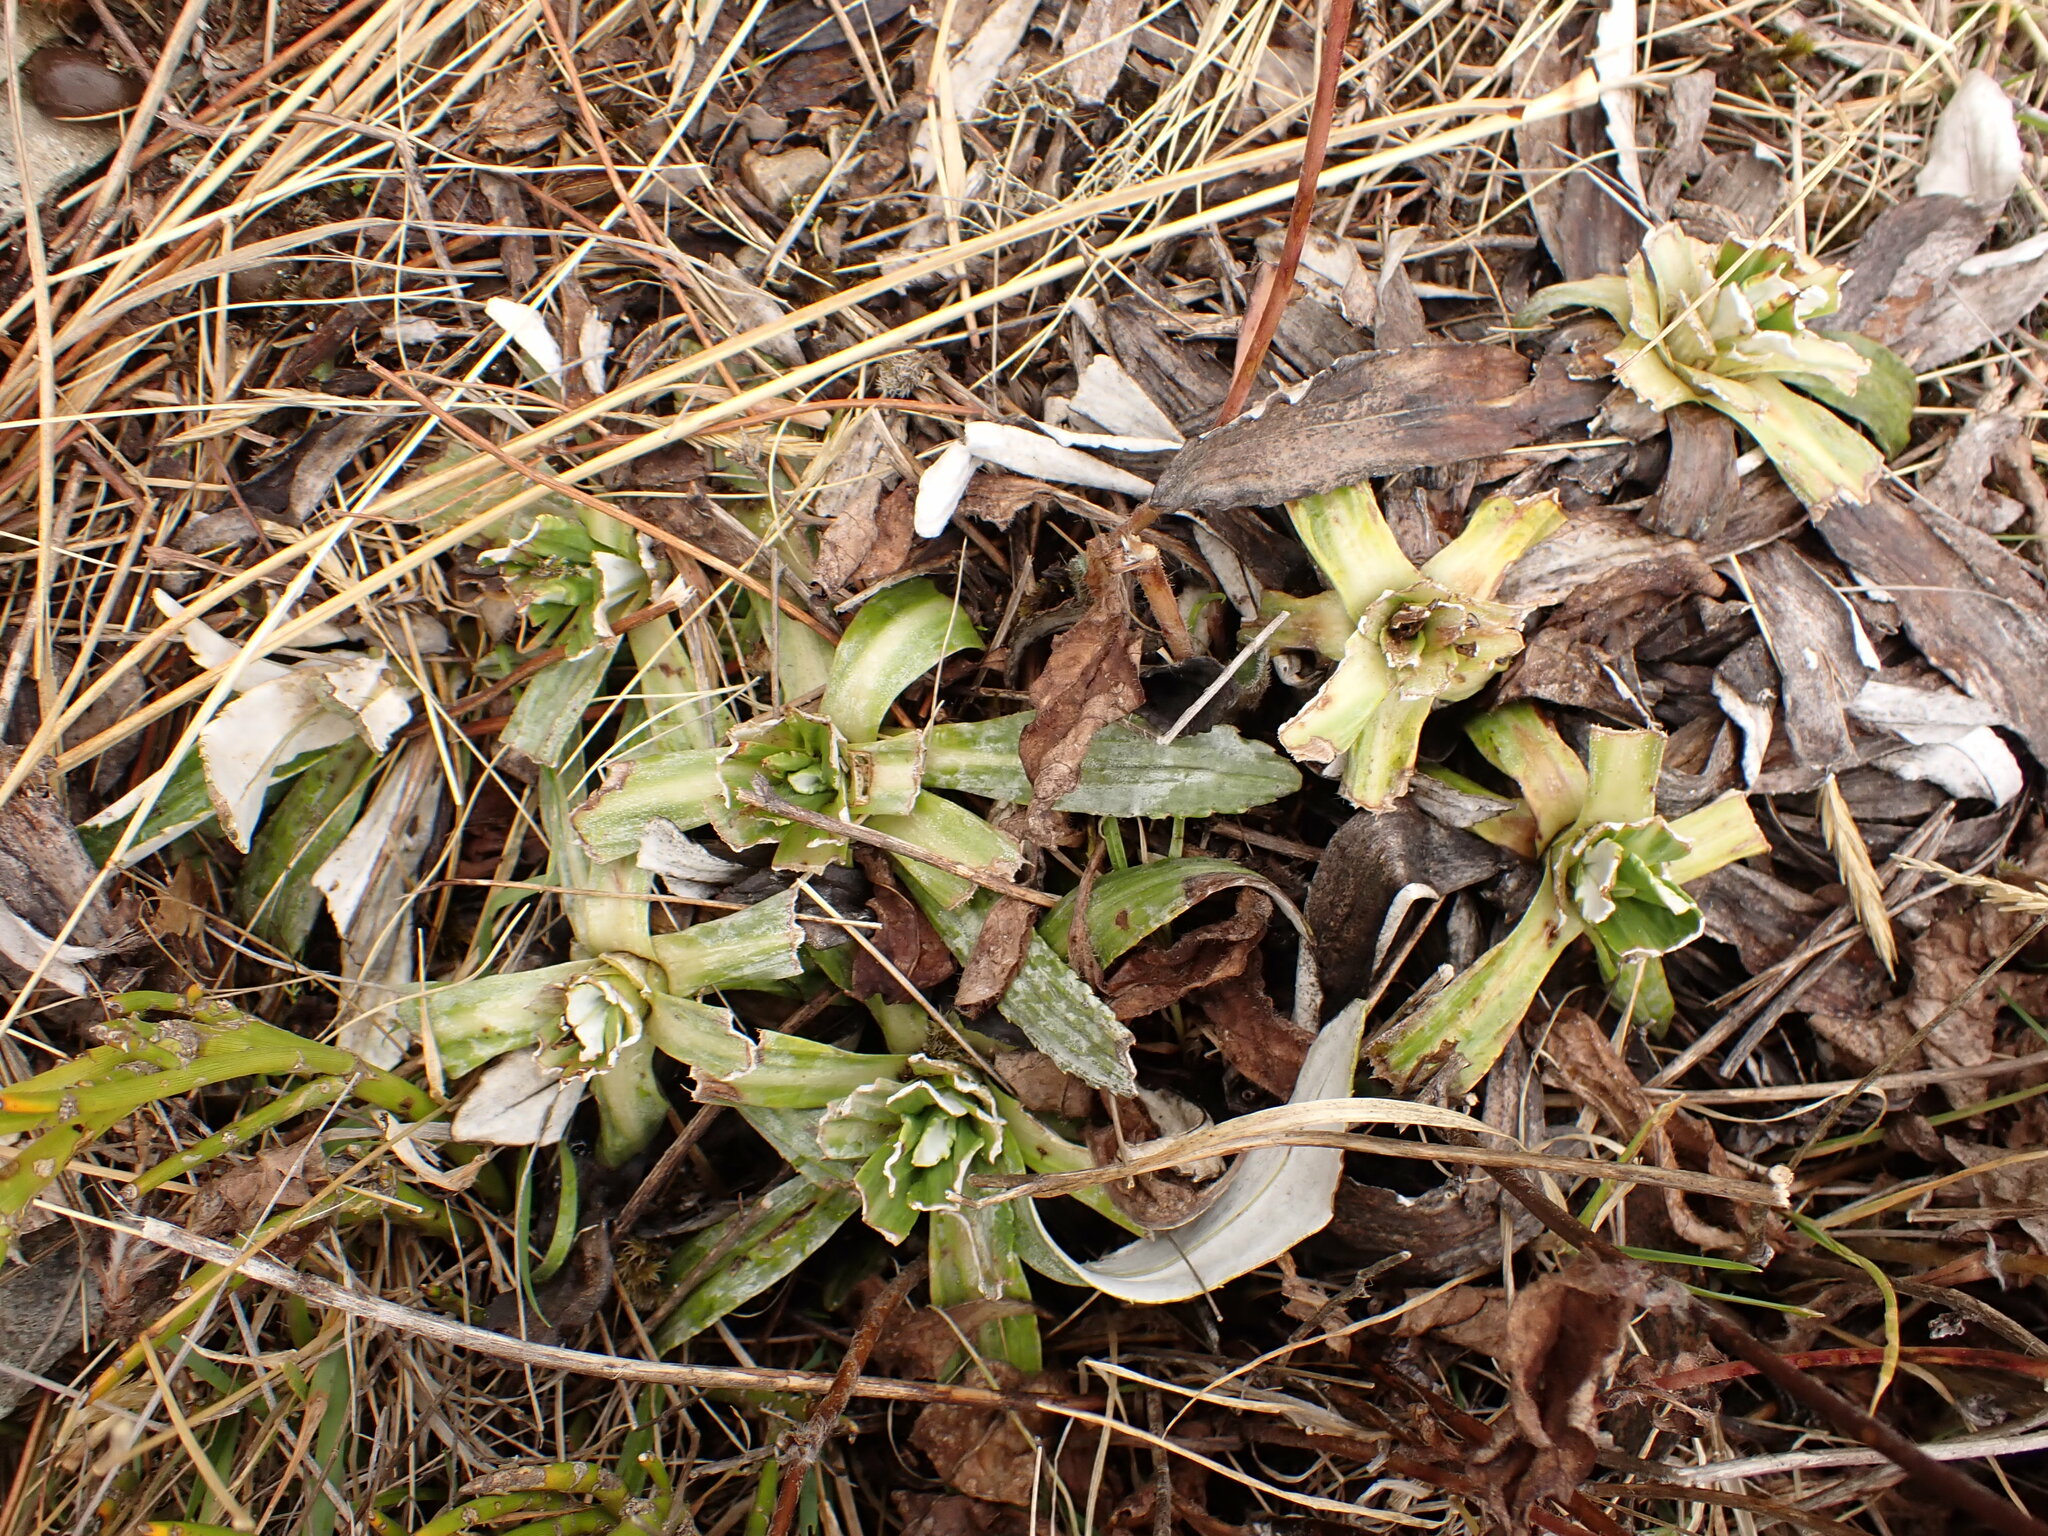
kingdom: Plantae
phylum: Tracheophyta
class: Magnoliopsida
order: Asterales
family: Asteraceae
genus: Celmisia
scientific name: Celmisia densiflora
